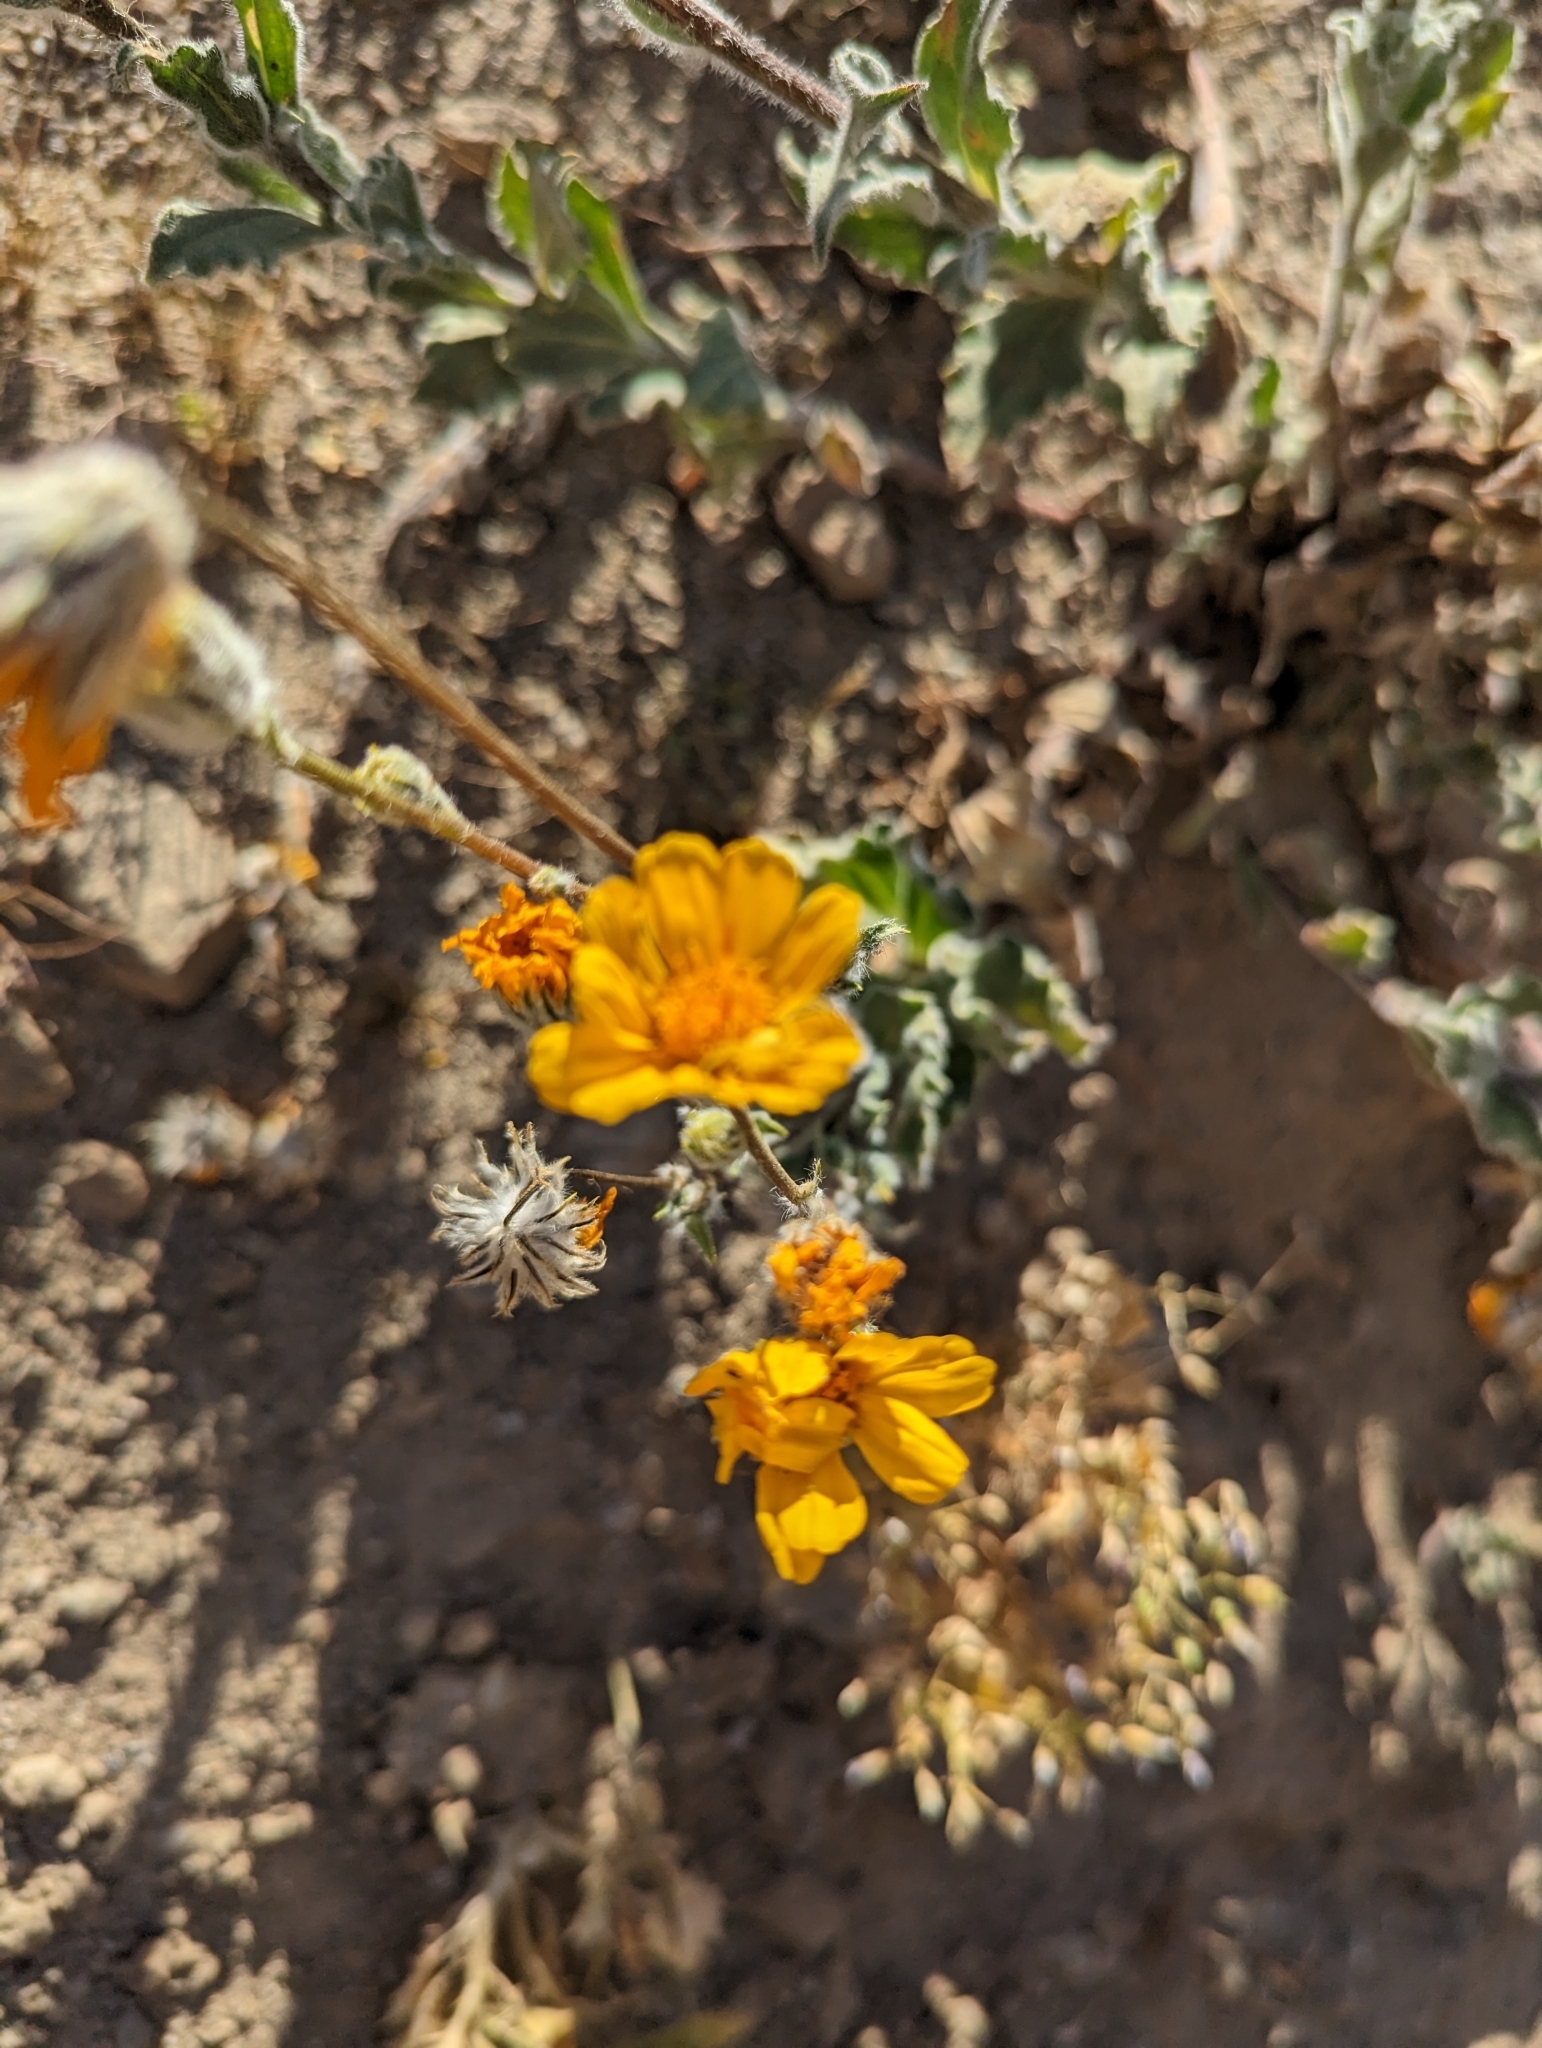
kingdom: Plantae
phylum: Tracheophyta
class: Magnoliopsida
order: Asterales
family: Asteraceae
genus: Geraea
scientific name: Geraea canescens
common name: Desert-gold
